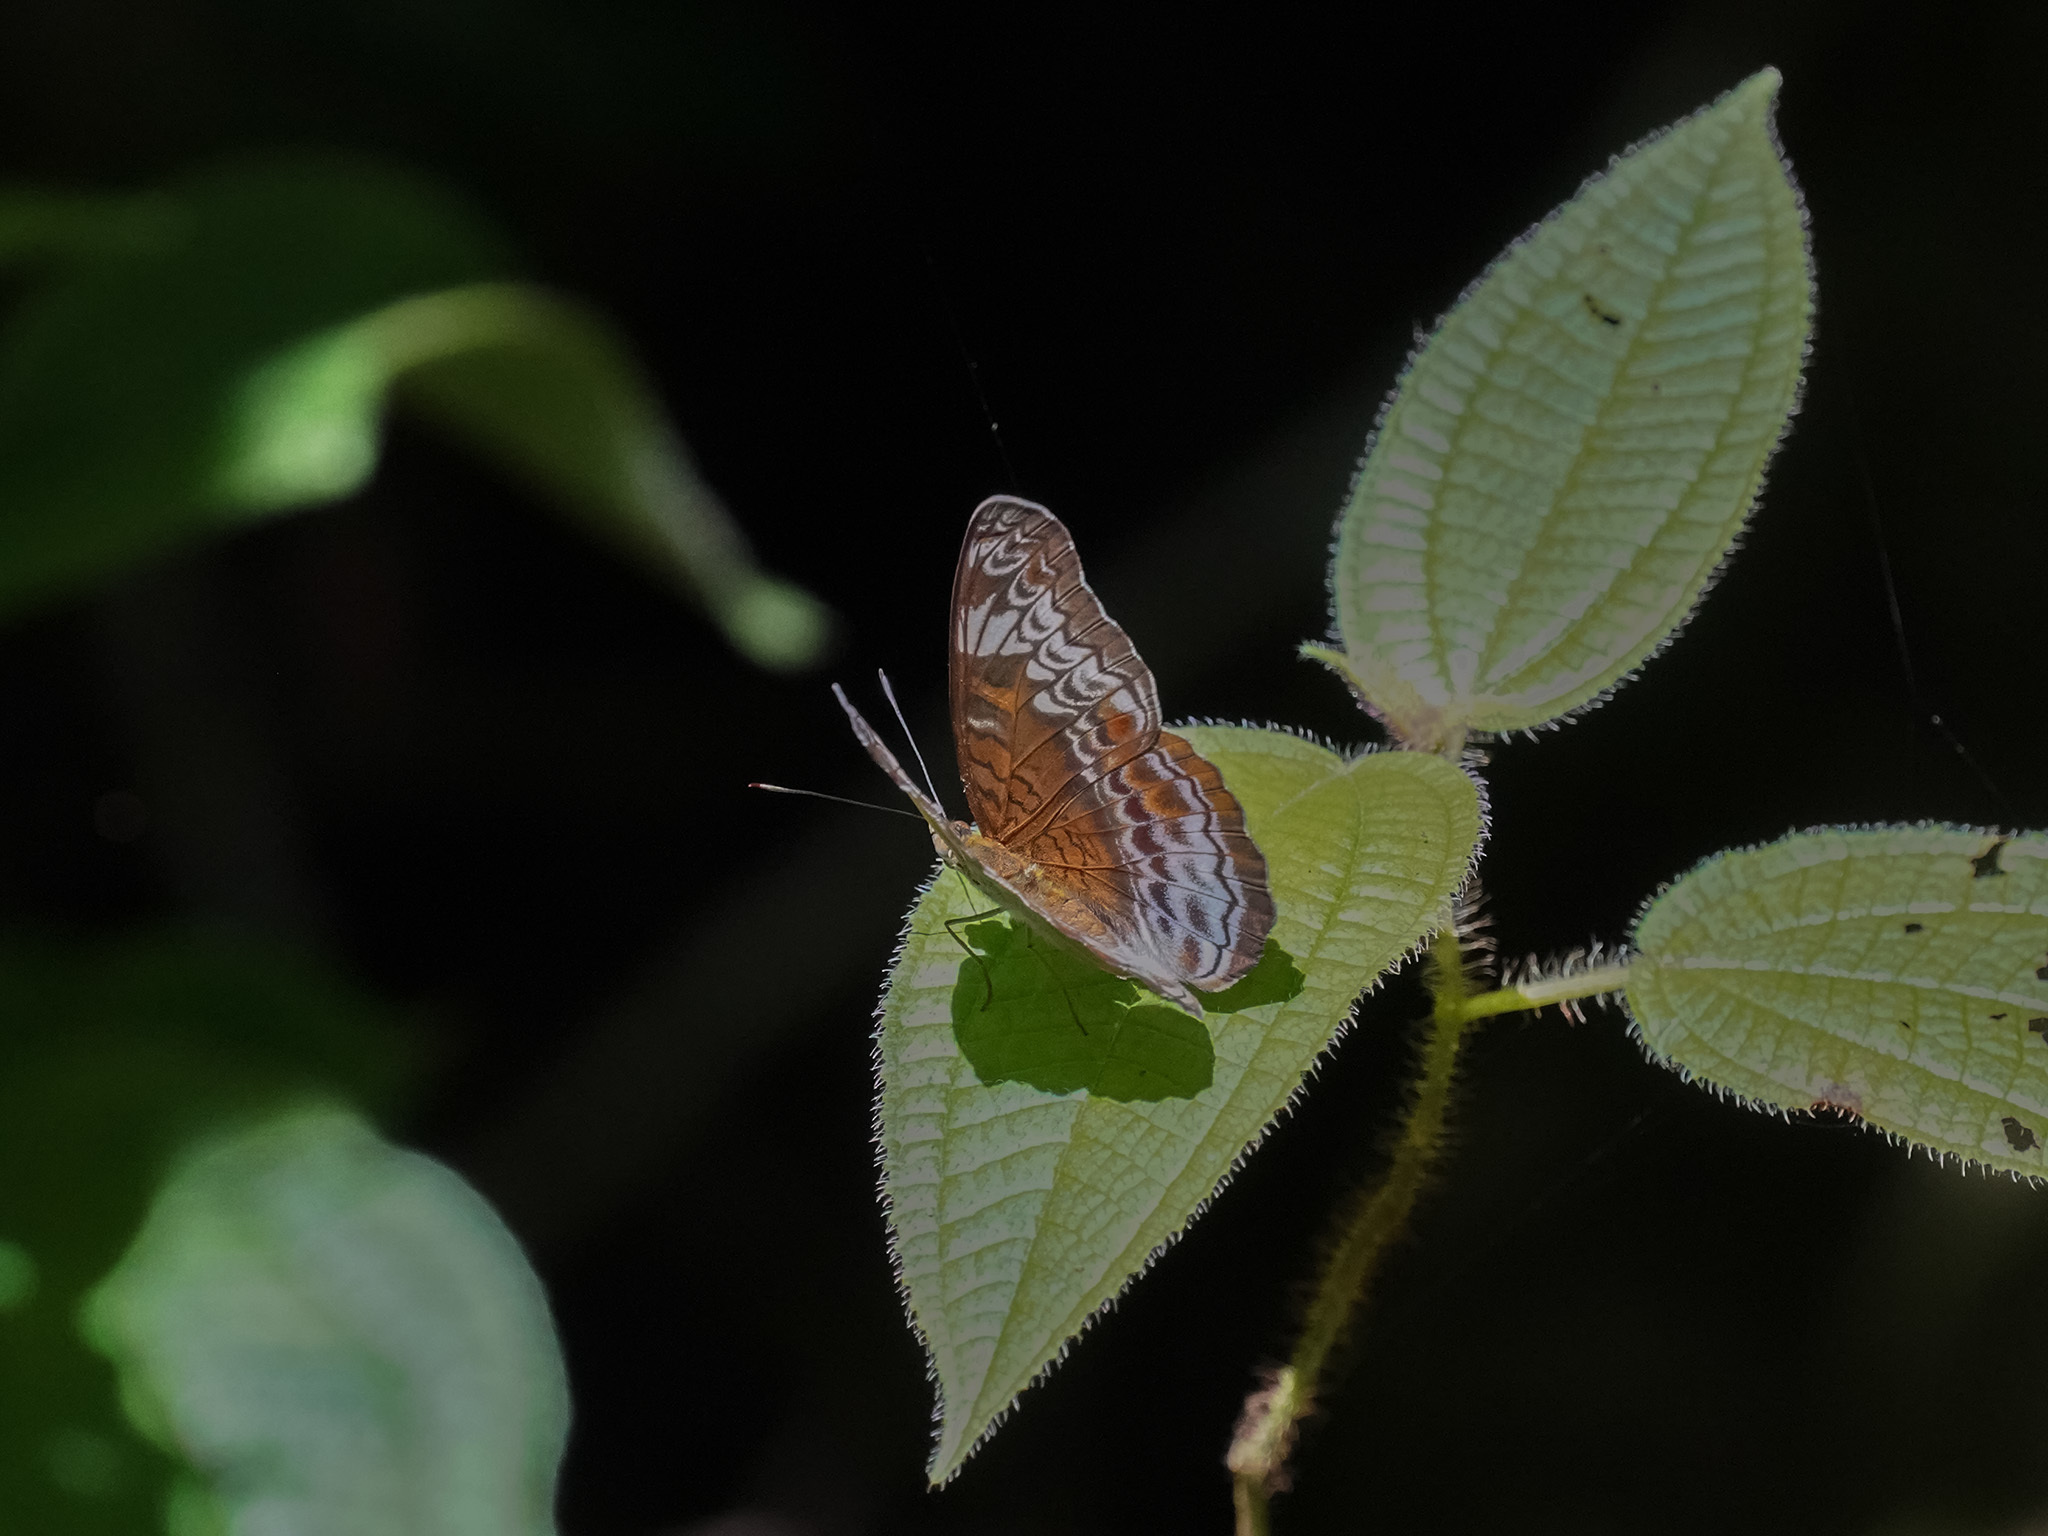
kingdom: Animalia
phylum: Arthropoda
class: Insecta
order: Lepidoptera
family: Nymphalidae
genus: Lebadea
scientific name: Lebadea martha
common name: Knight
